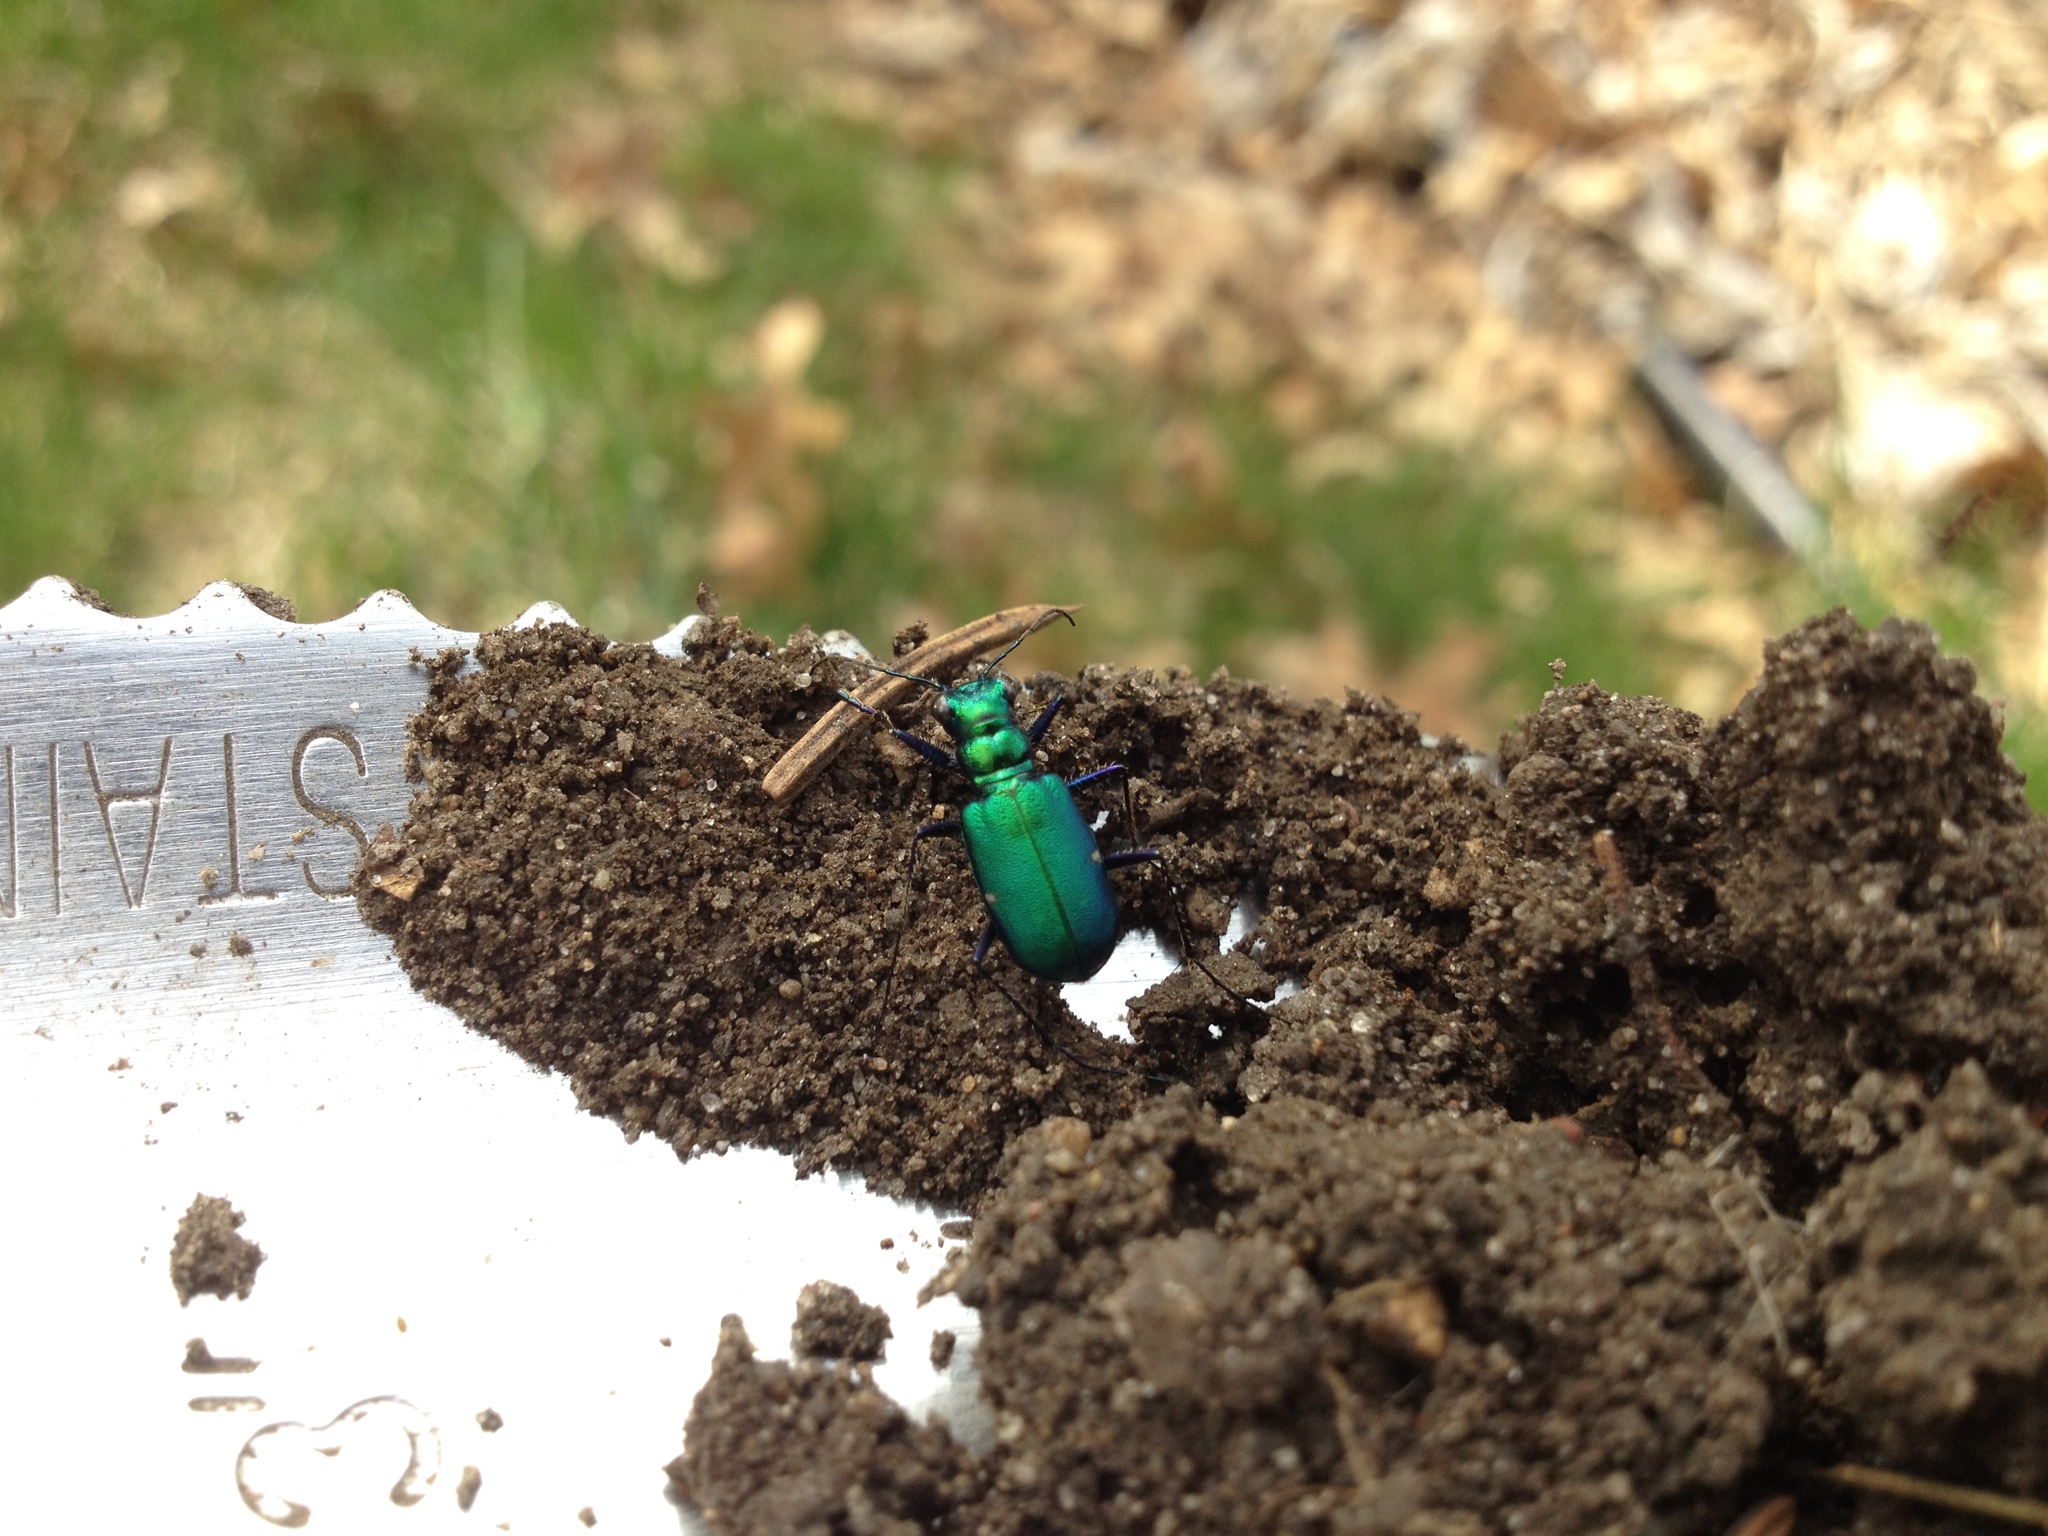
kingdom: Animalia
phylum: Arthropoda
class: Insecta
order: Coleoptera
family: Carabidae
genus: Cicindela
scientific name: Cicindela sexguttata
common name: Six-spotted tiger beetle
